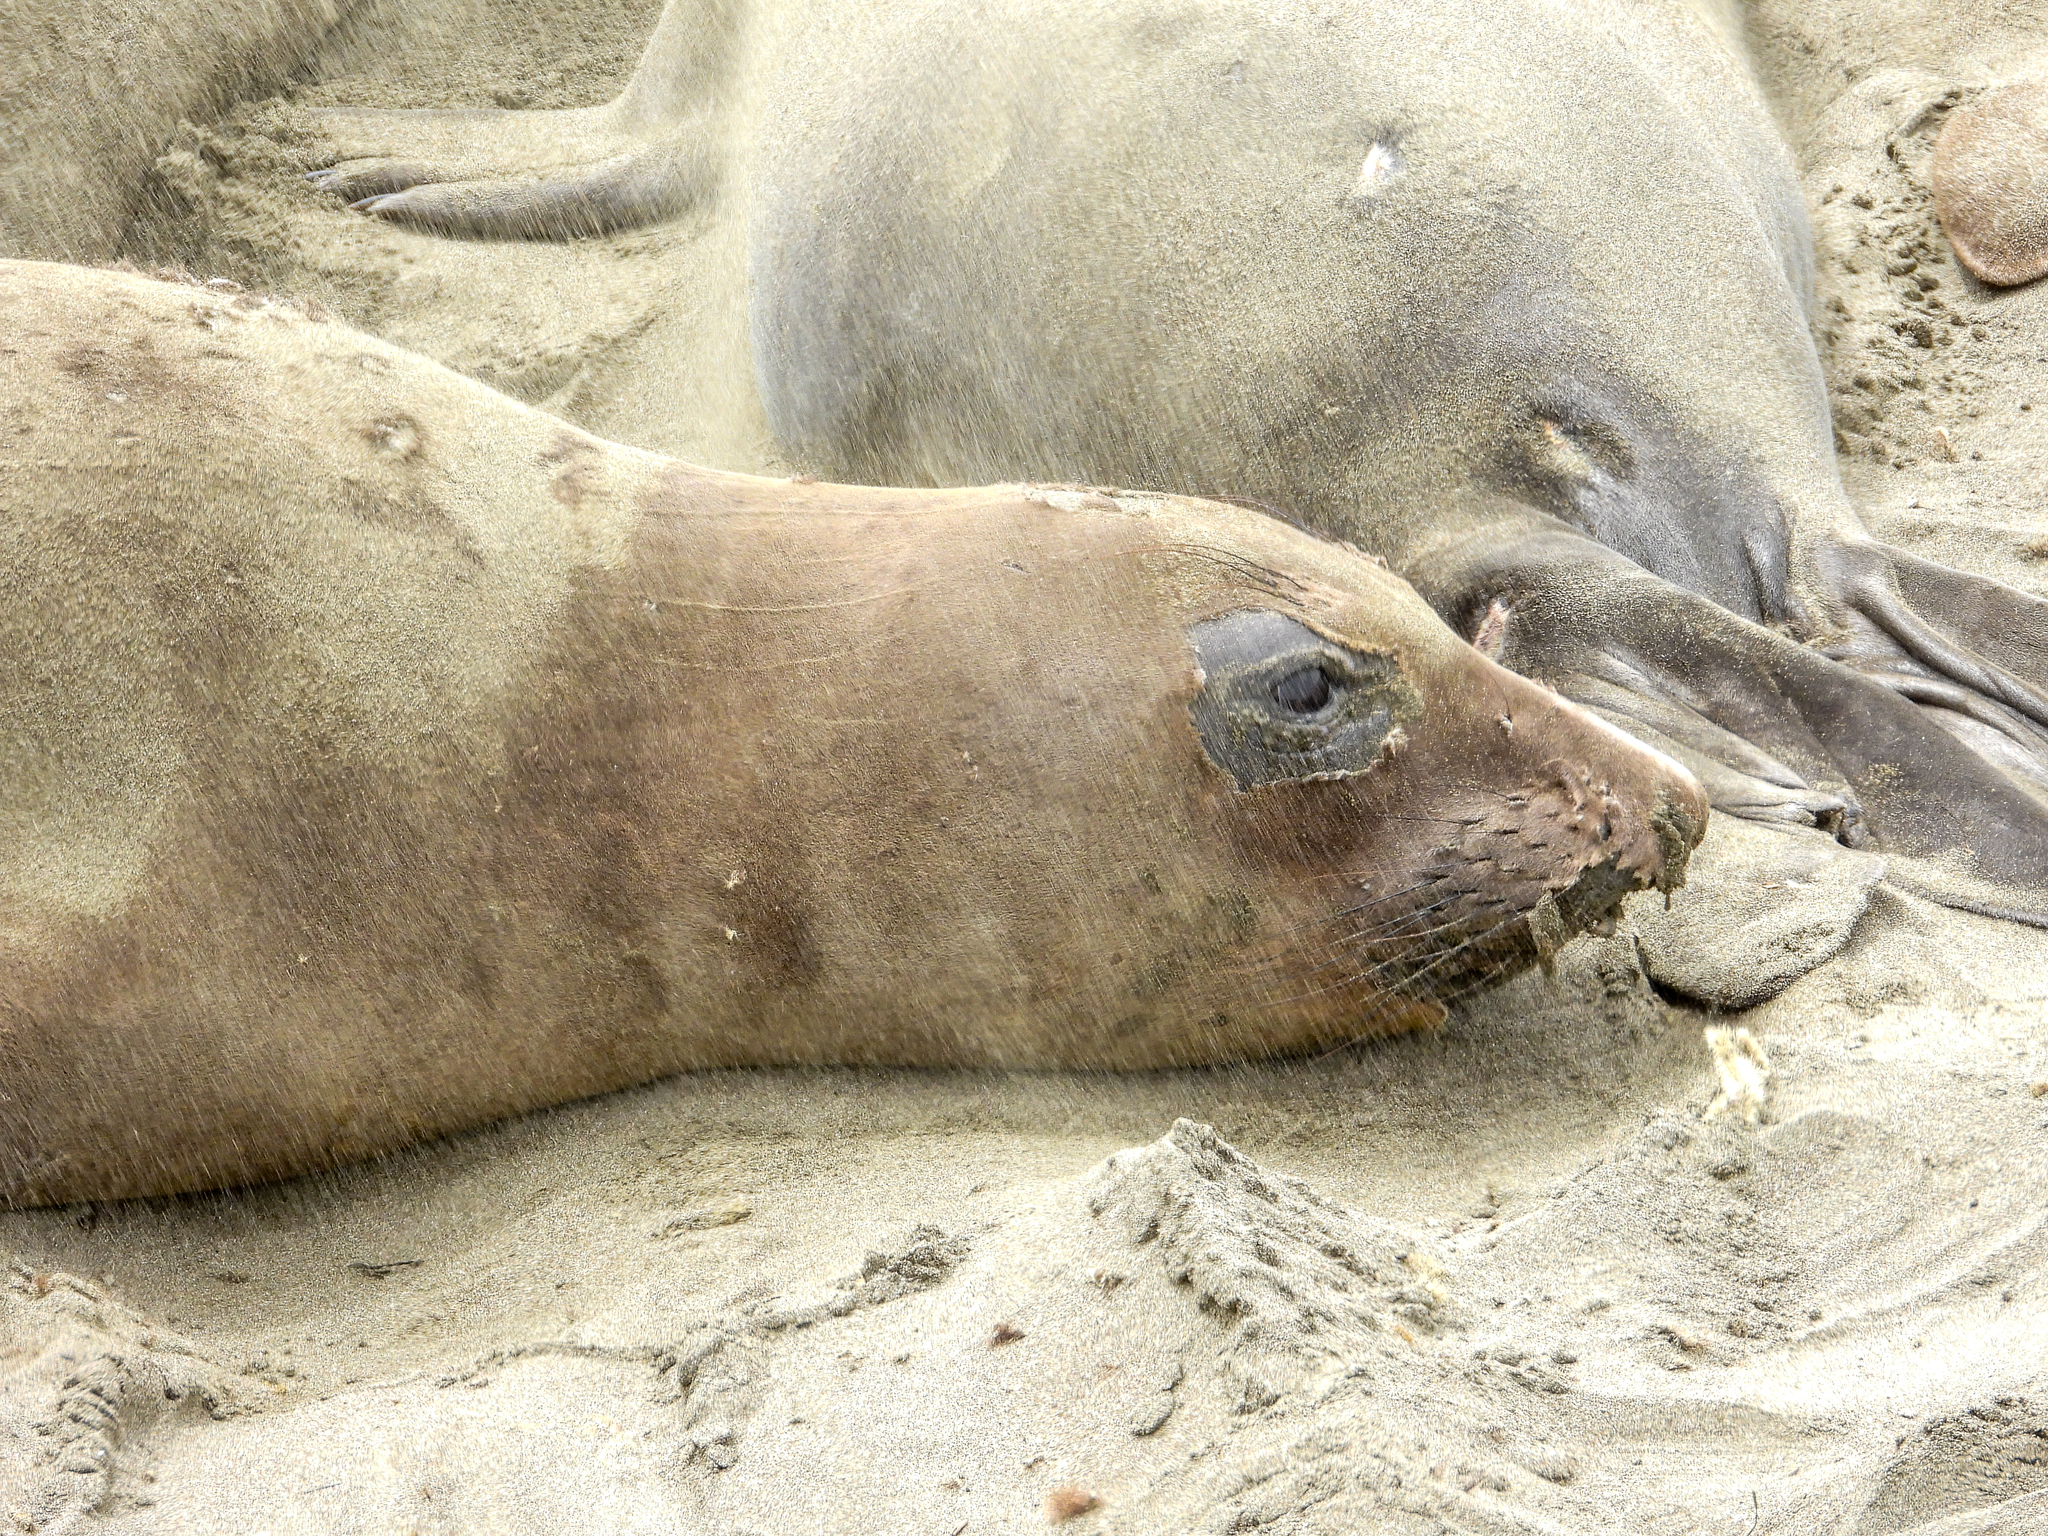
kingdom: Animalia
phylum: Chordata
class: Mammalia
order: Carnivora
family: Phocidae
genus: Mirounga
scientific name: Mirounga angustirostris
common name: Northern elephant seal
